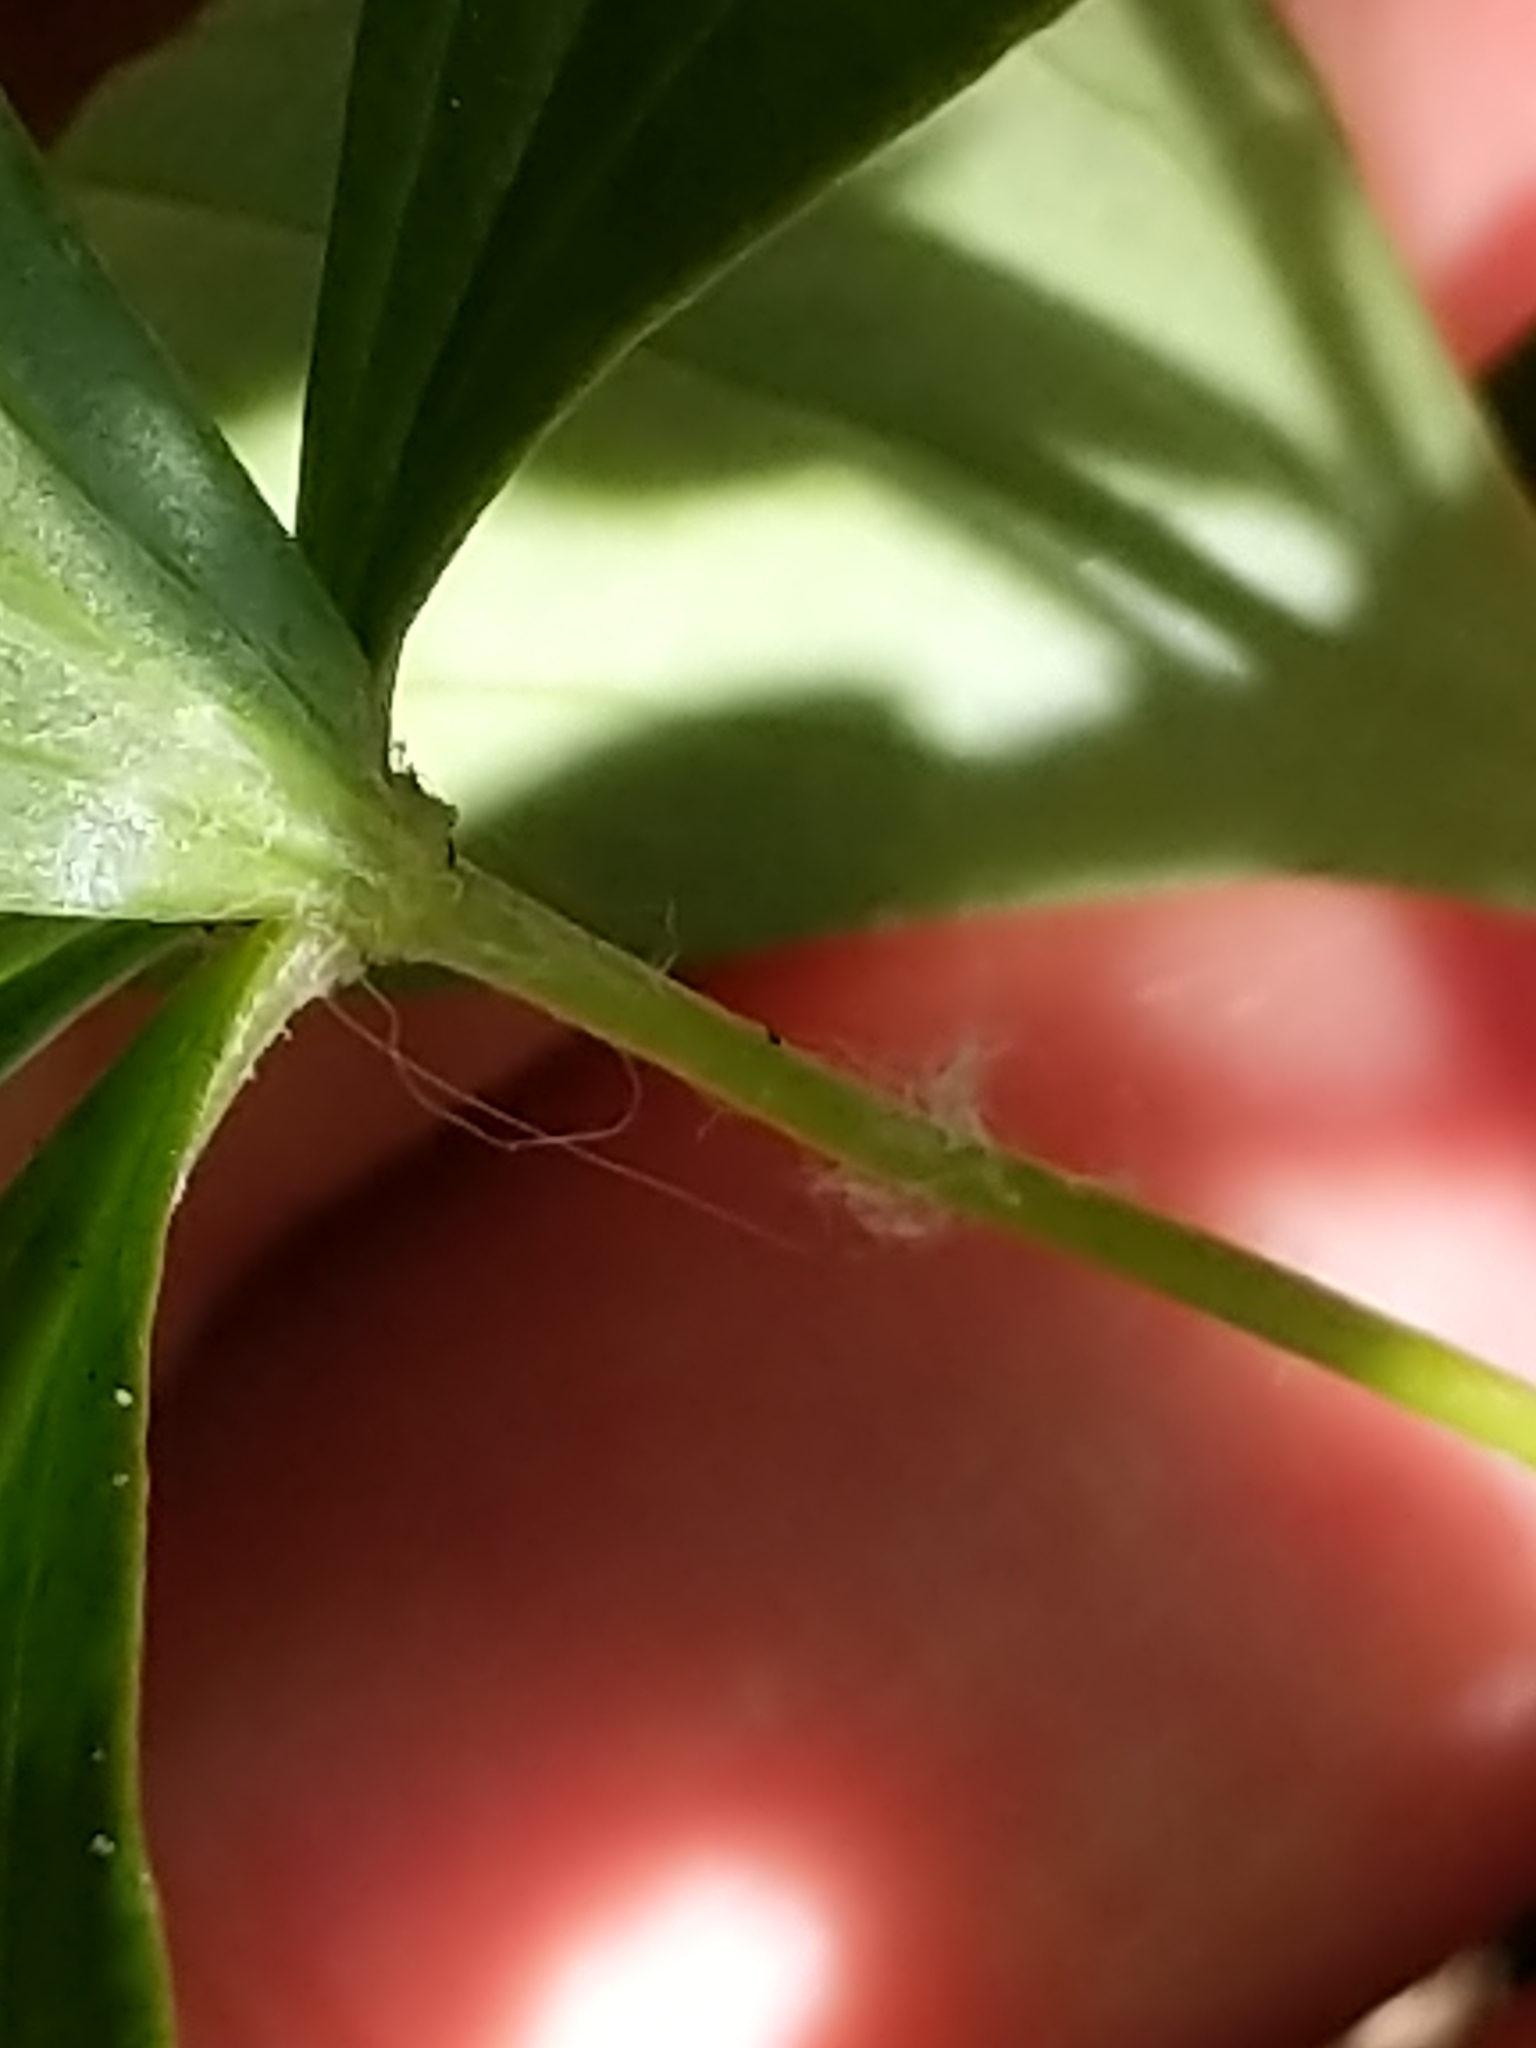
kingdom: Plantae
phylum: Tracheophyta
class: Liliopsida
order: Liliales
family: Liliaceae
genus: Medeola
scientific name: Medeola virginiana
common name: Indian cucumber-root
